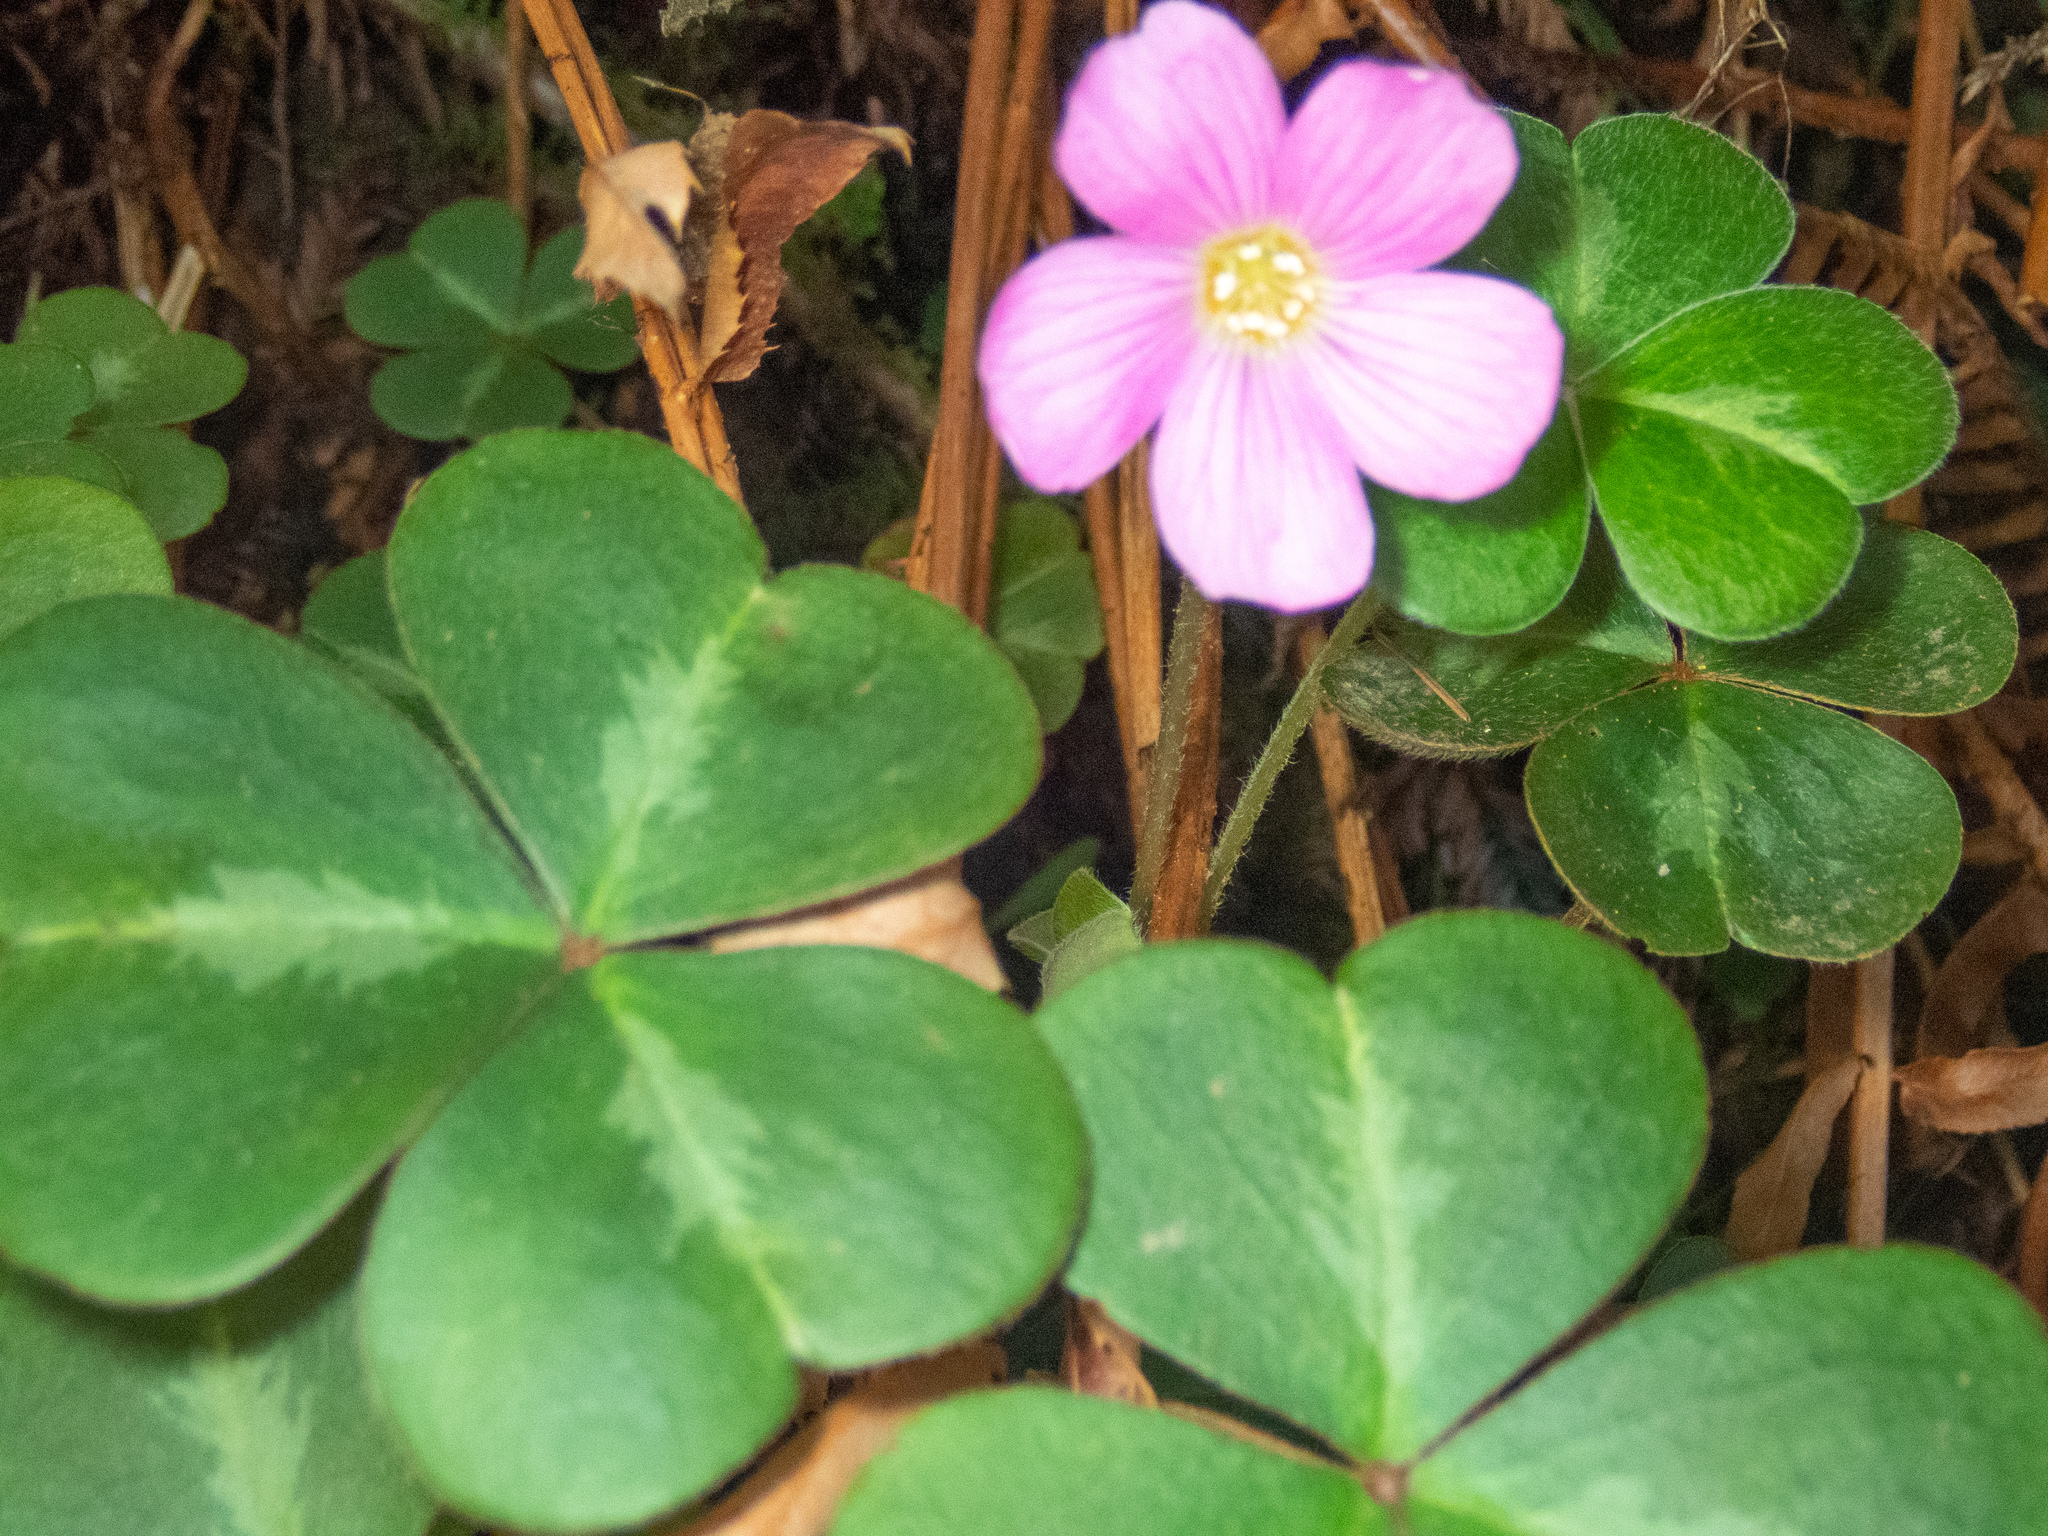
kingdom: Plantae
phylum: Tracheophyta
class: Magnoliopsida
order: Oxalidales
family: Oxalidaceae
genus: Oxalis
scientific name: Oxalis oregana
